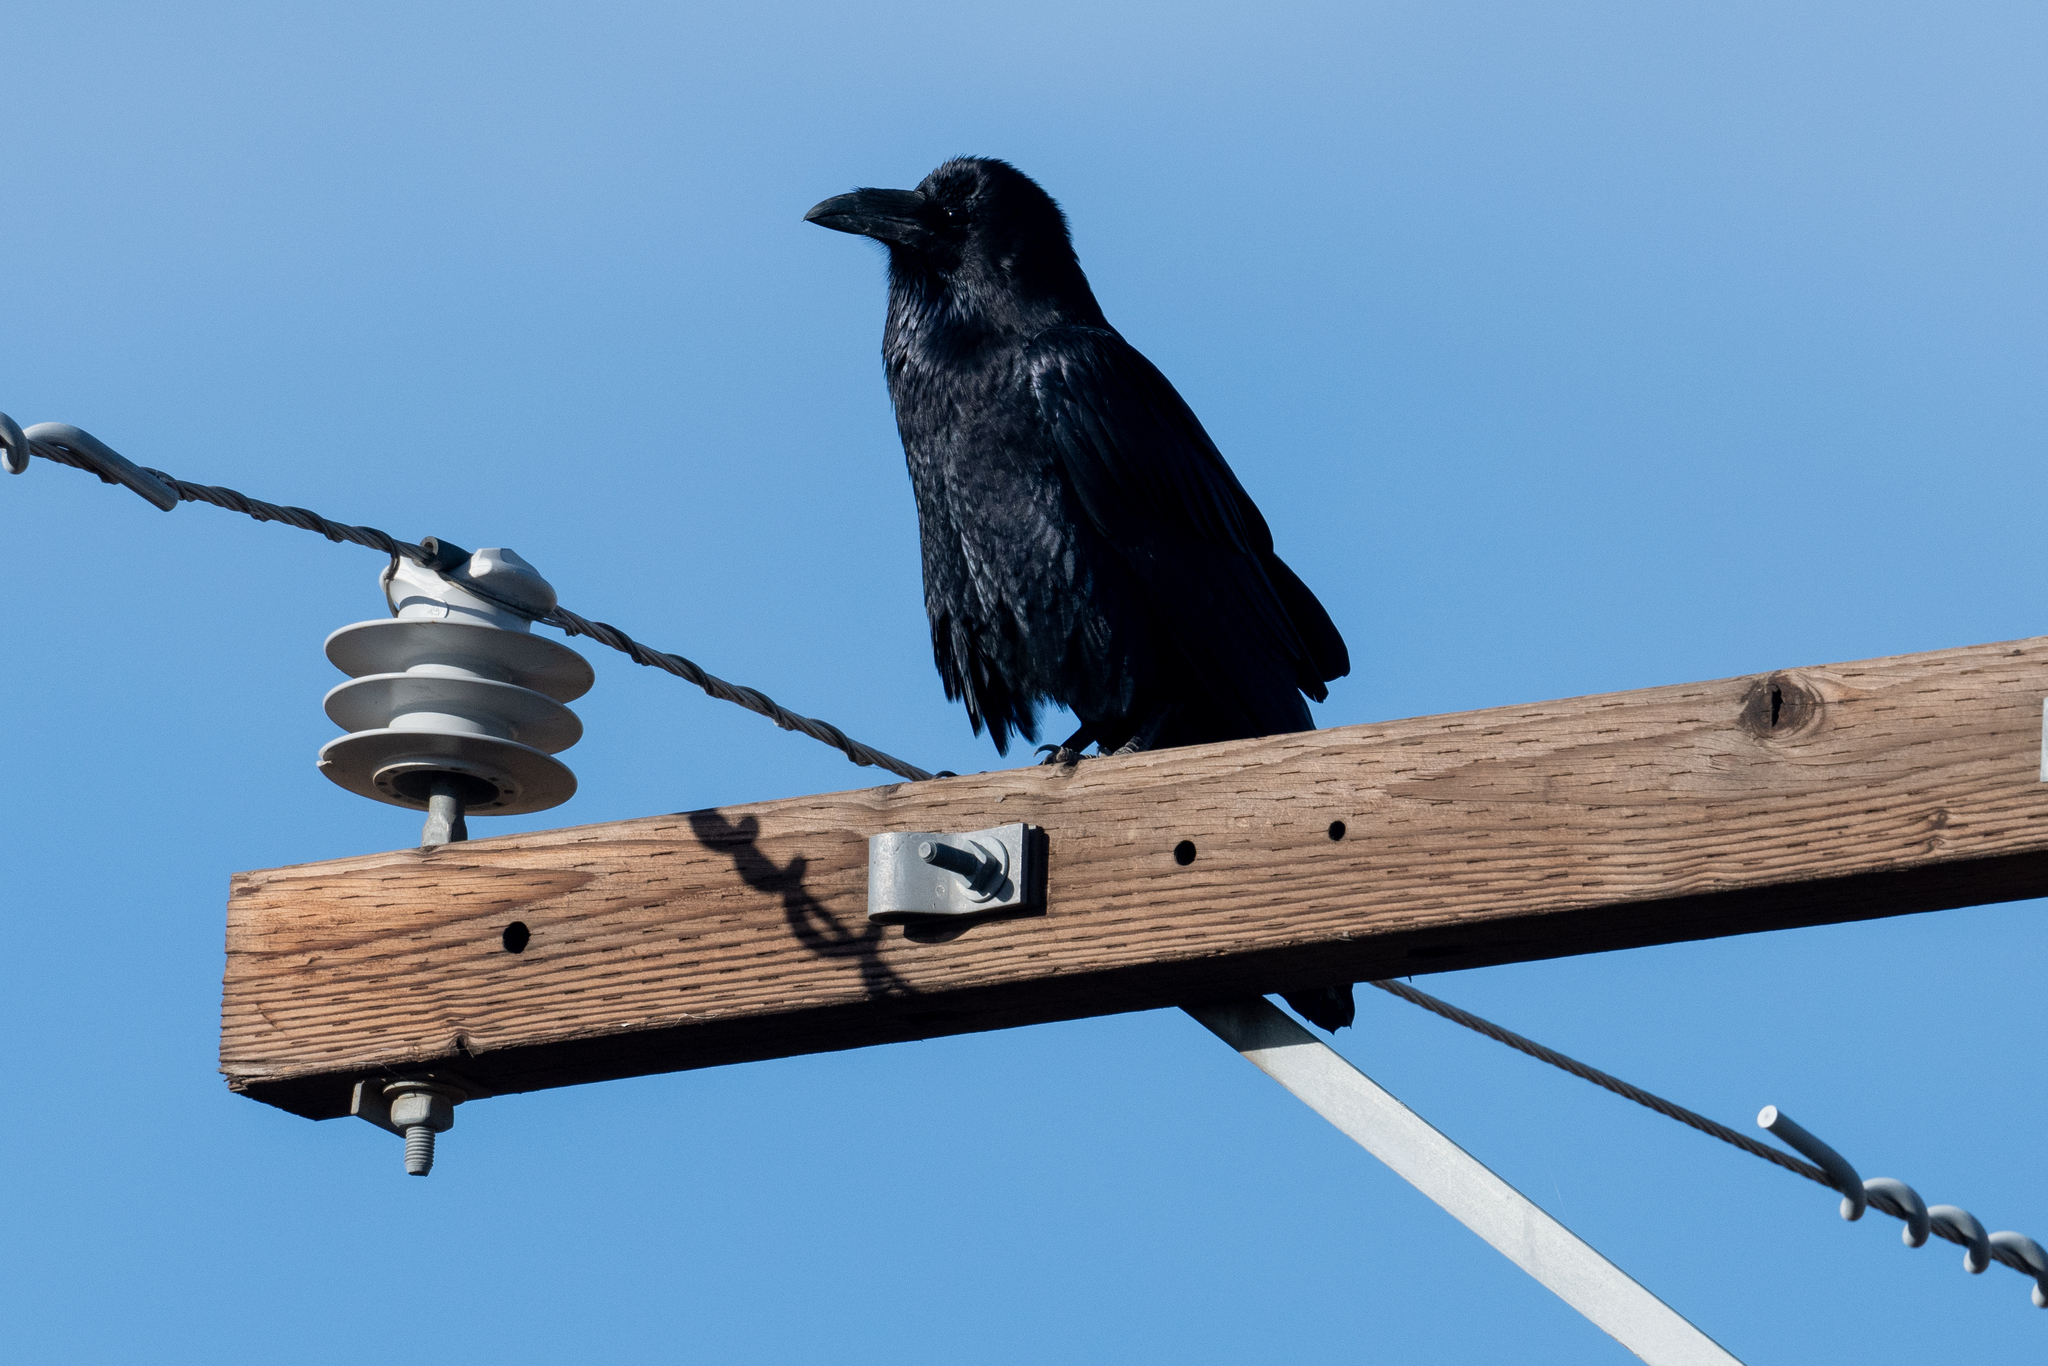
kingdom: Animalia
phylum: Chordata
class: Aves
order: Passeriformes
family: Corvidae
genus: Corvus
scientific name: Corvus corax
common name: Common raven
